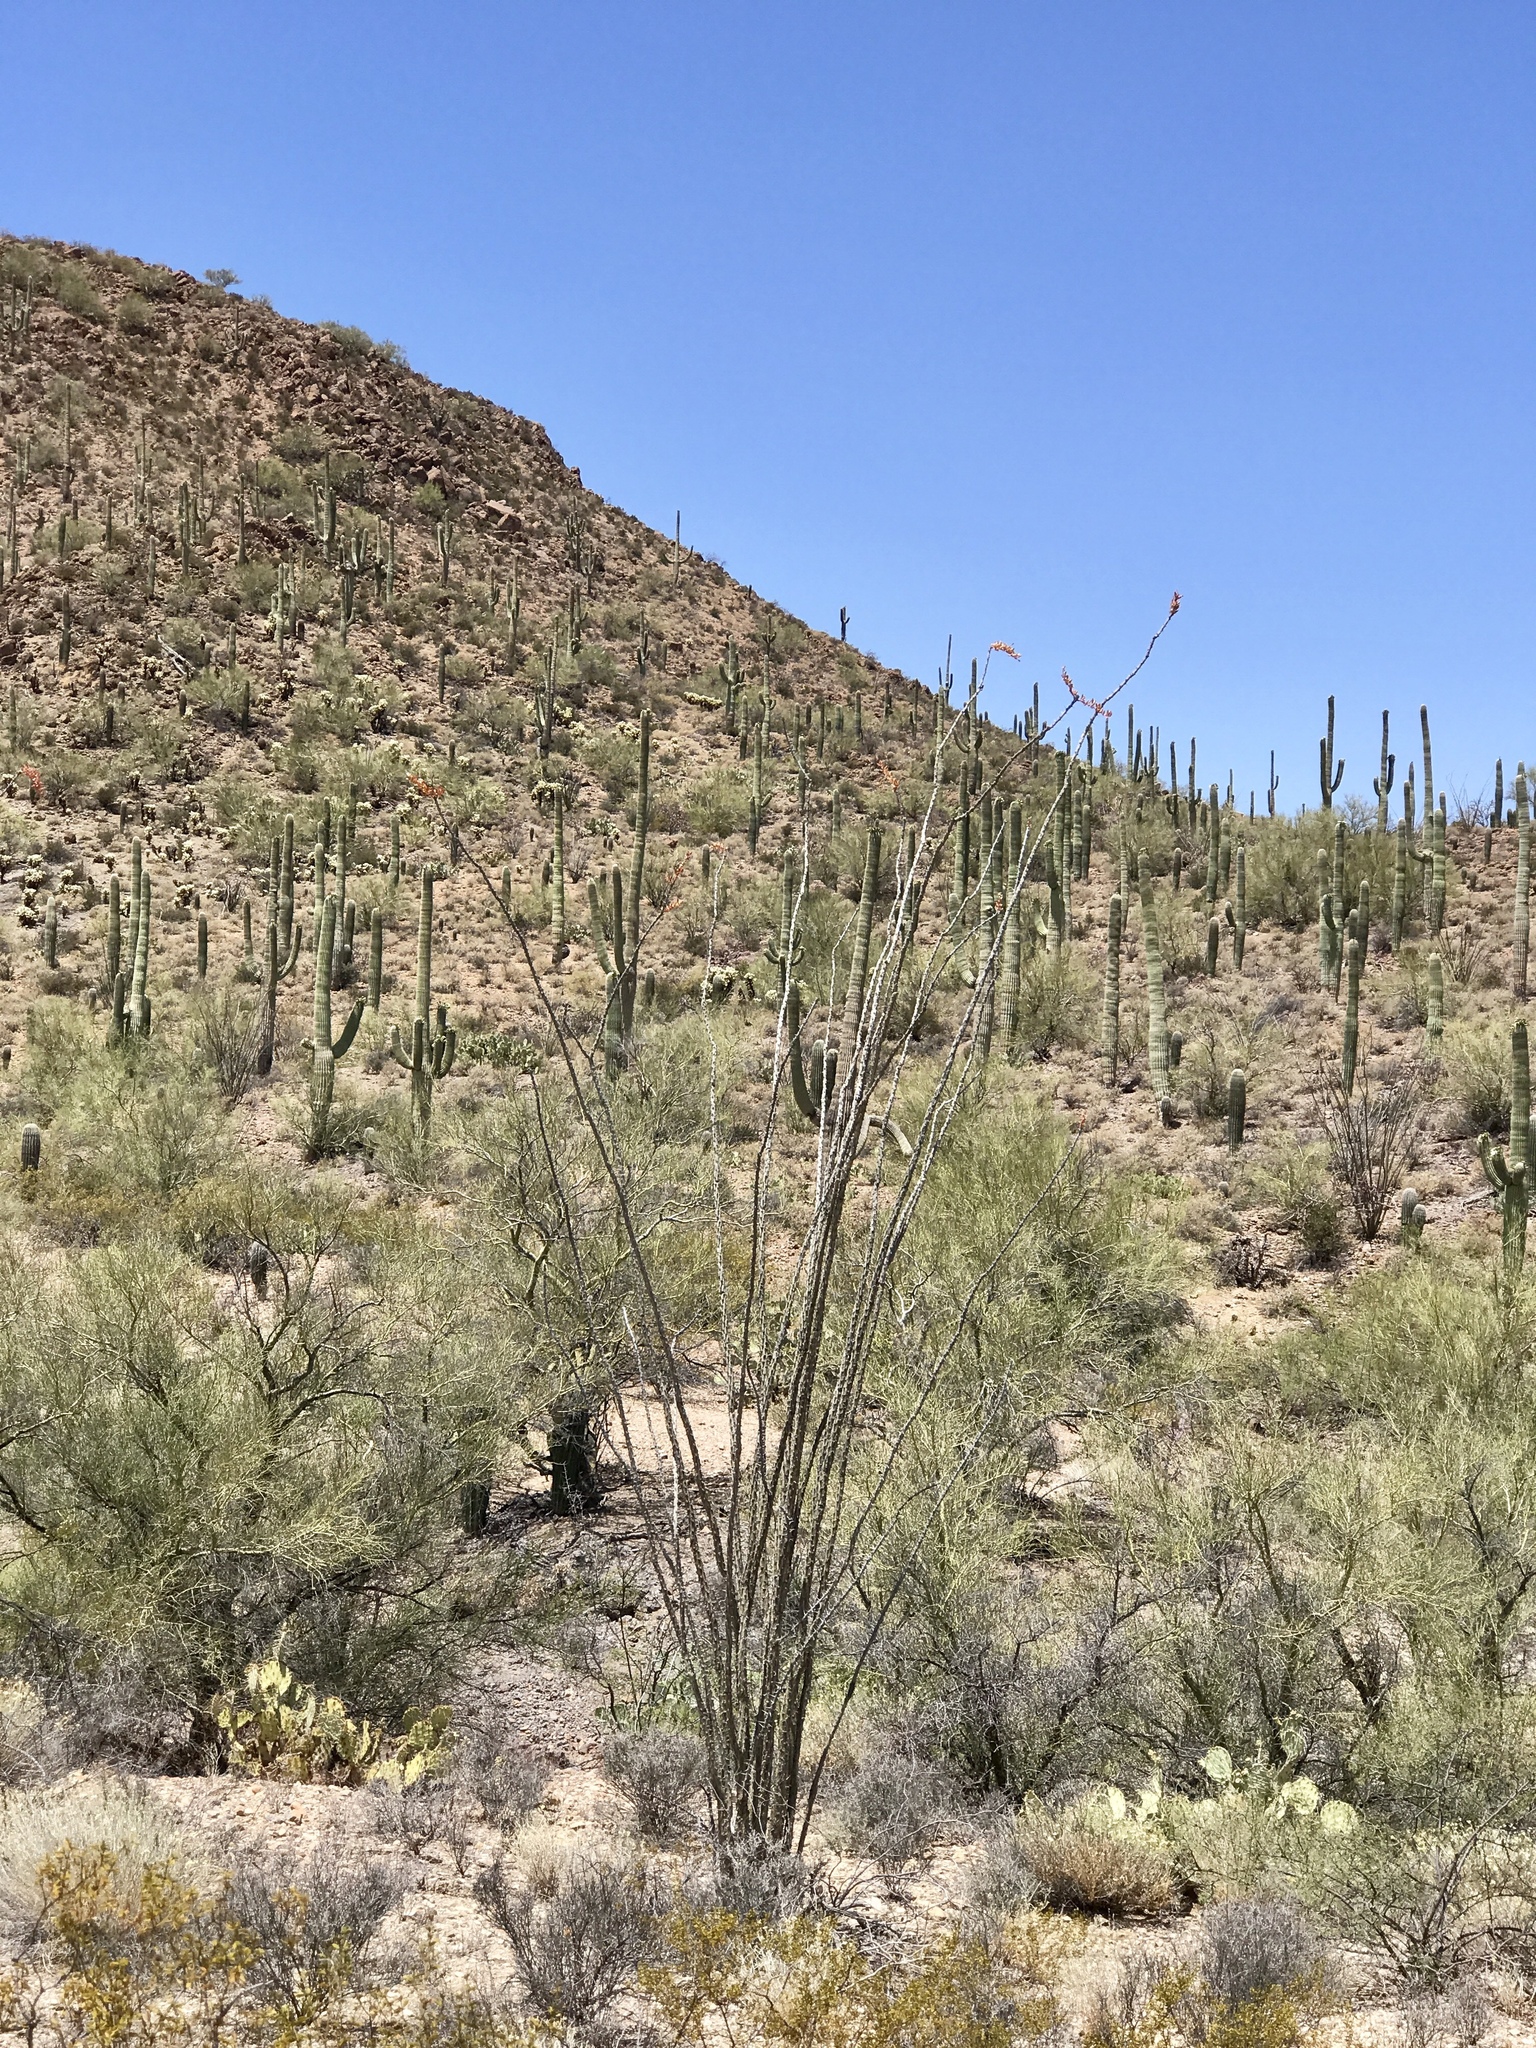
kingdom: Plantae
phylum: Tracheophyta
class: Magnoliopsida
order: Ericales
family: Fouquieriaceae
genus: Fouquieria
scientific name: Fouquieria splendens
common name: Vine-cactus
